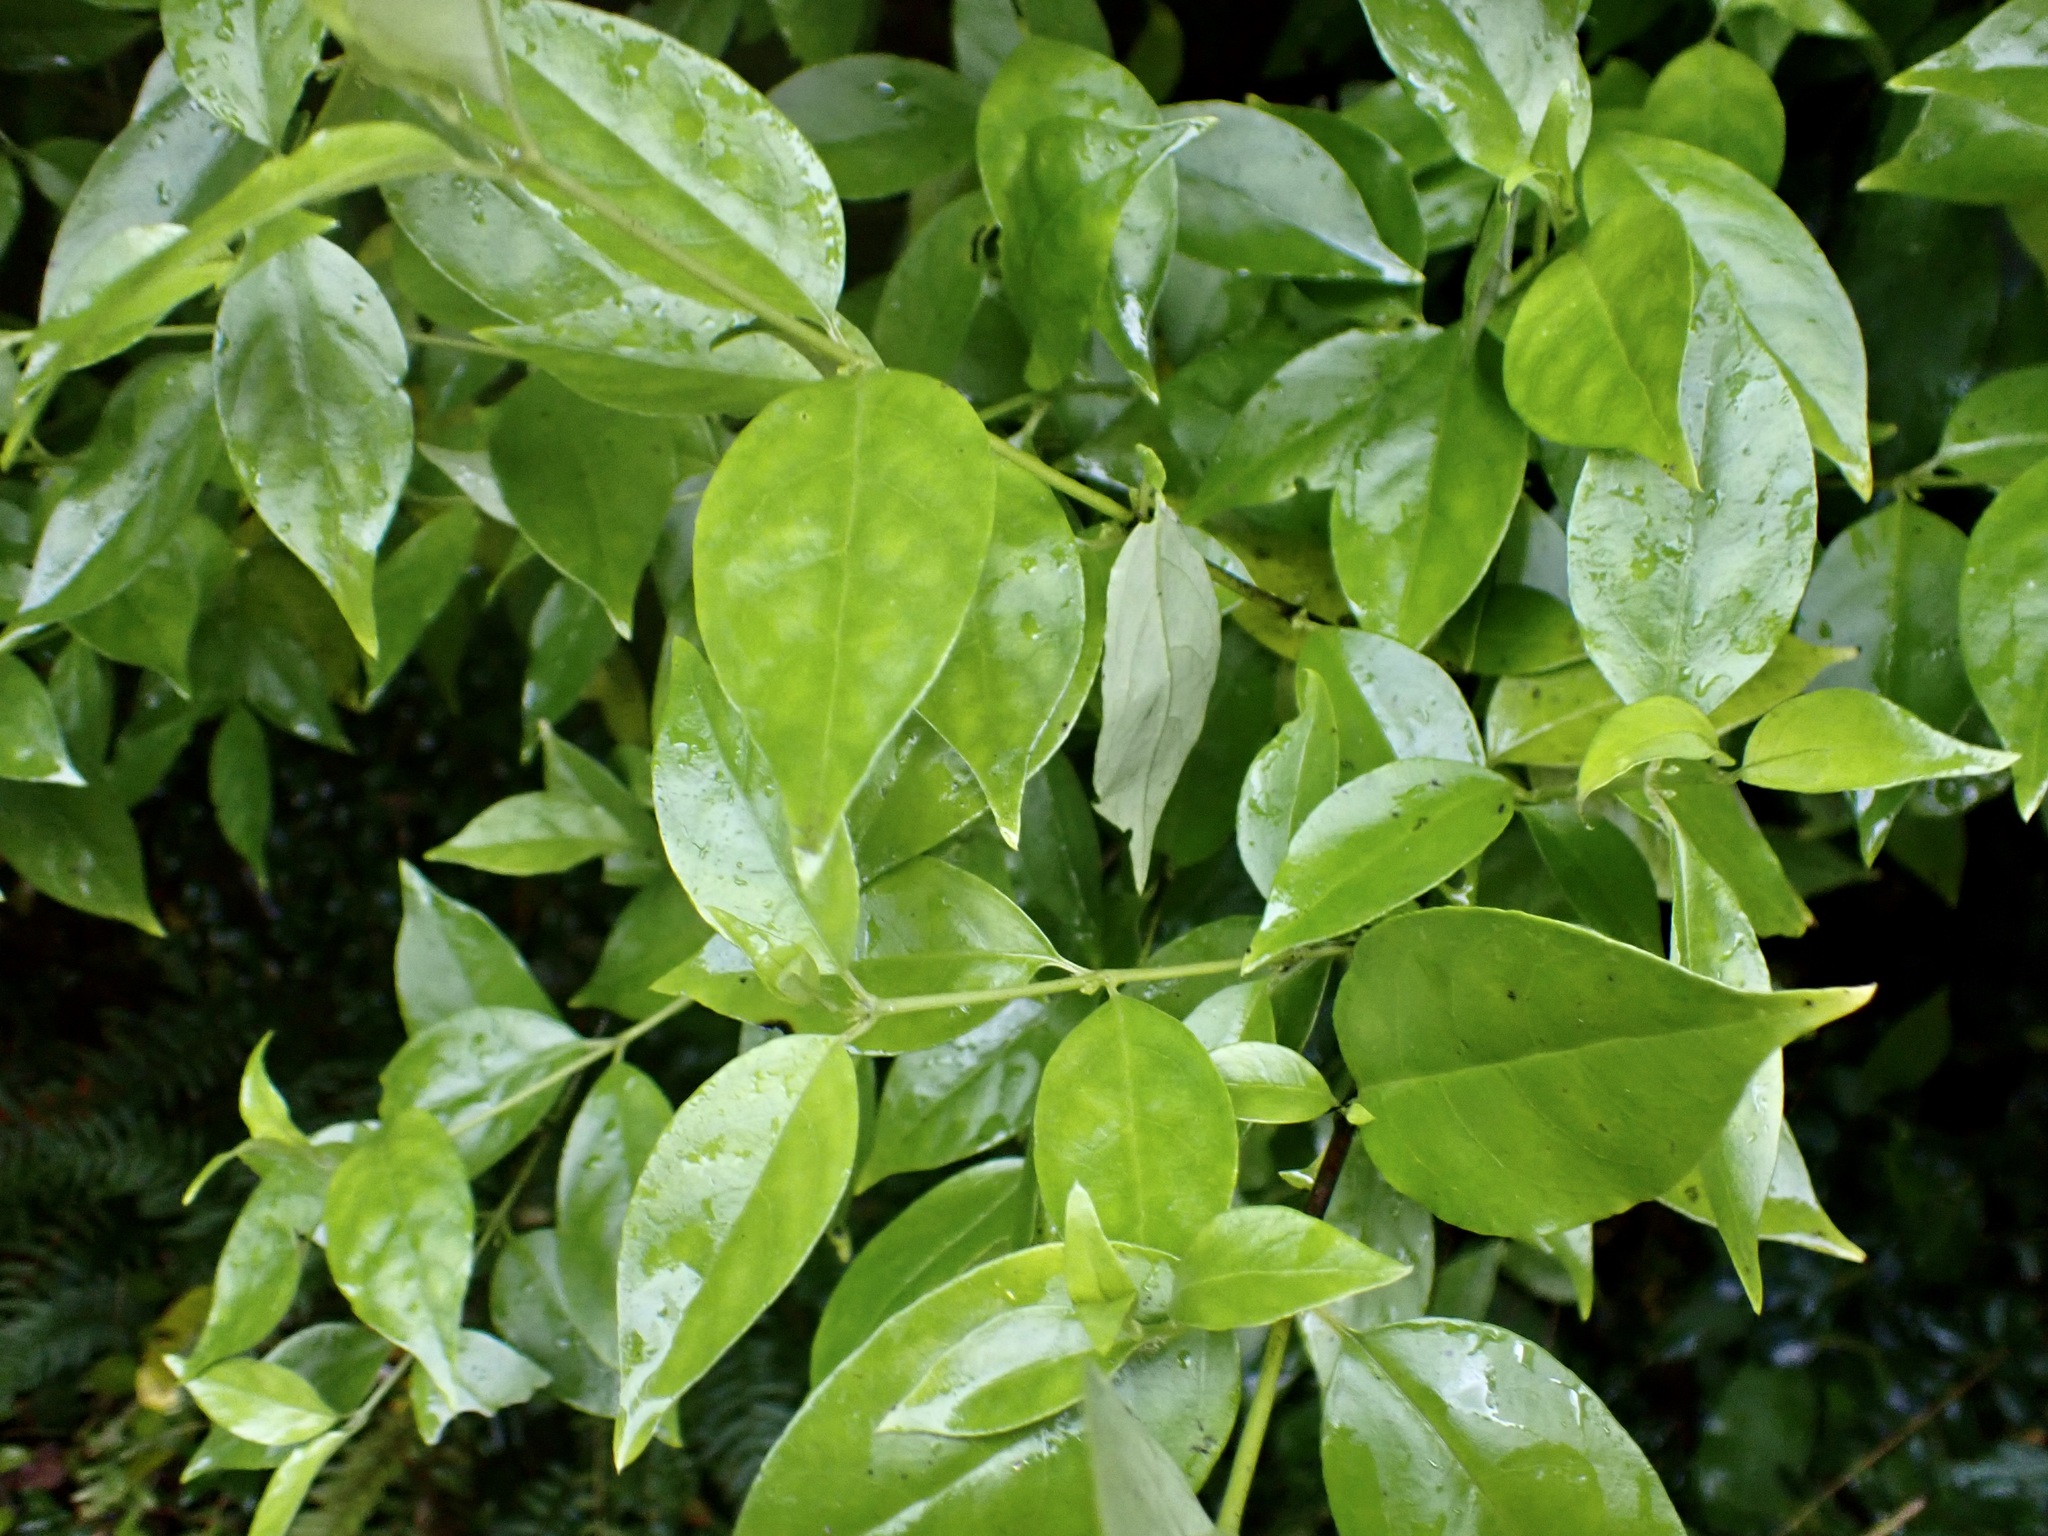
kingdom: Plantae
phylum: Tracheophyta
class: Magnoliopsida
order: Gentianales
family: Loganiaceae
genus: Geniostoma
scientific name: Geniostoma ligustrifolium
